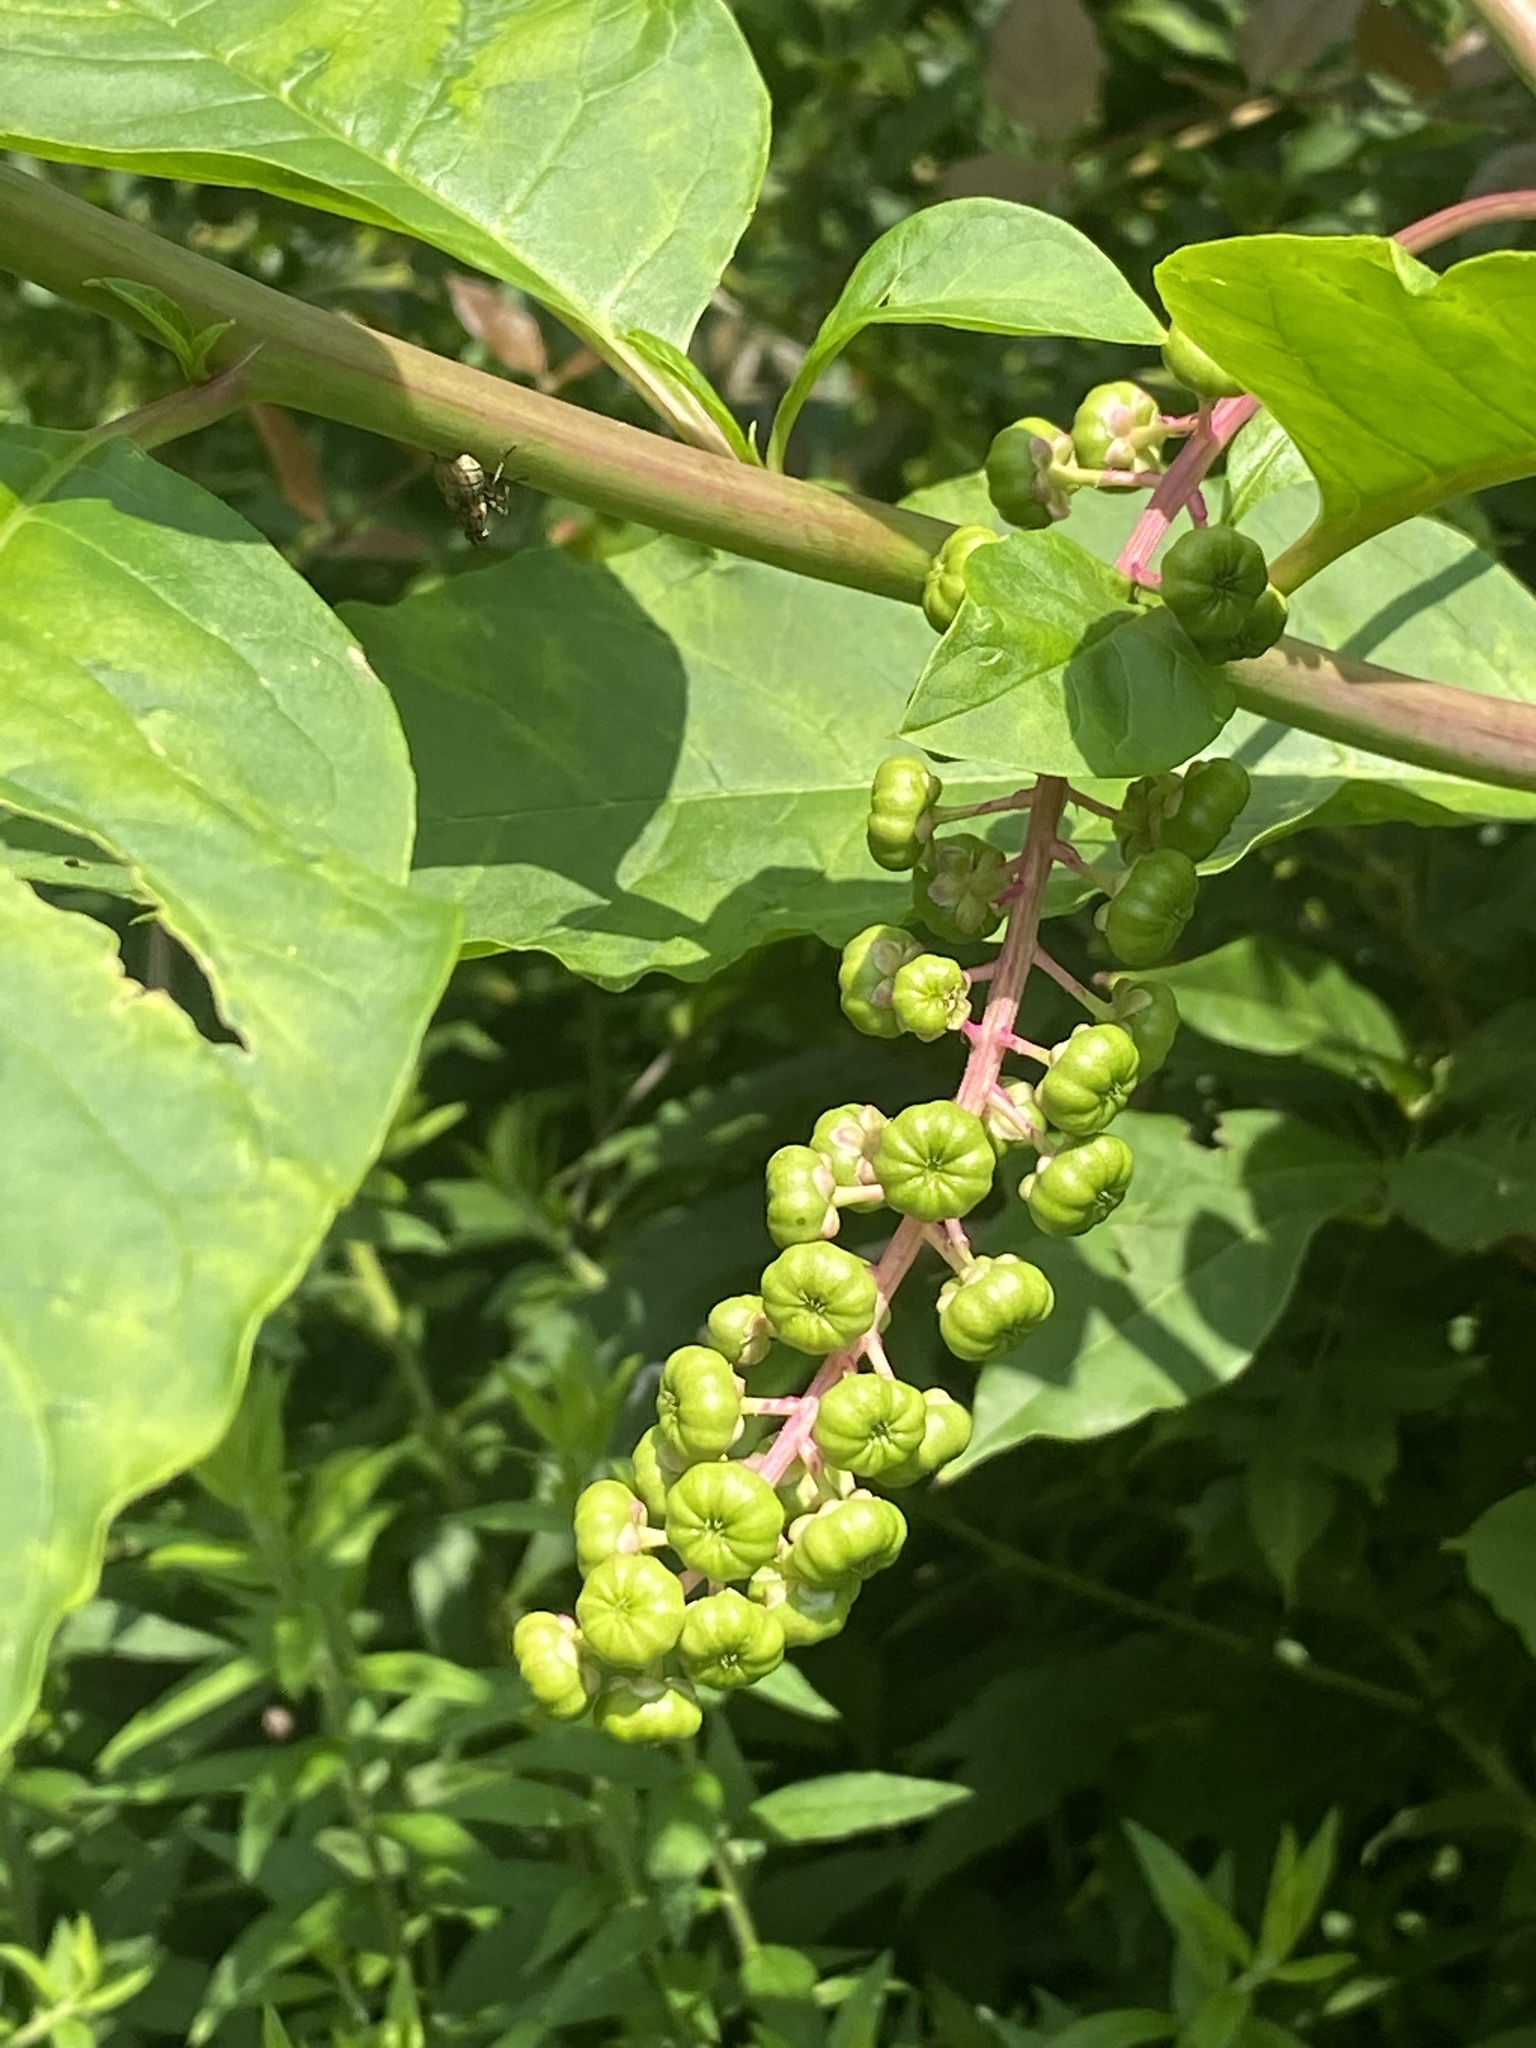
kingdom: Plantae
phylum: Tracheophyta
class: Magnoliopsida
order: Caryophyllales
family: Phytolaccaceae
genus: Phytolacca
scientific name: Phytolacca americana
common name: American pokeweed
